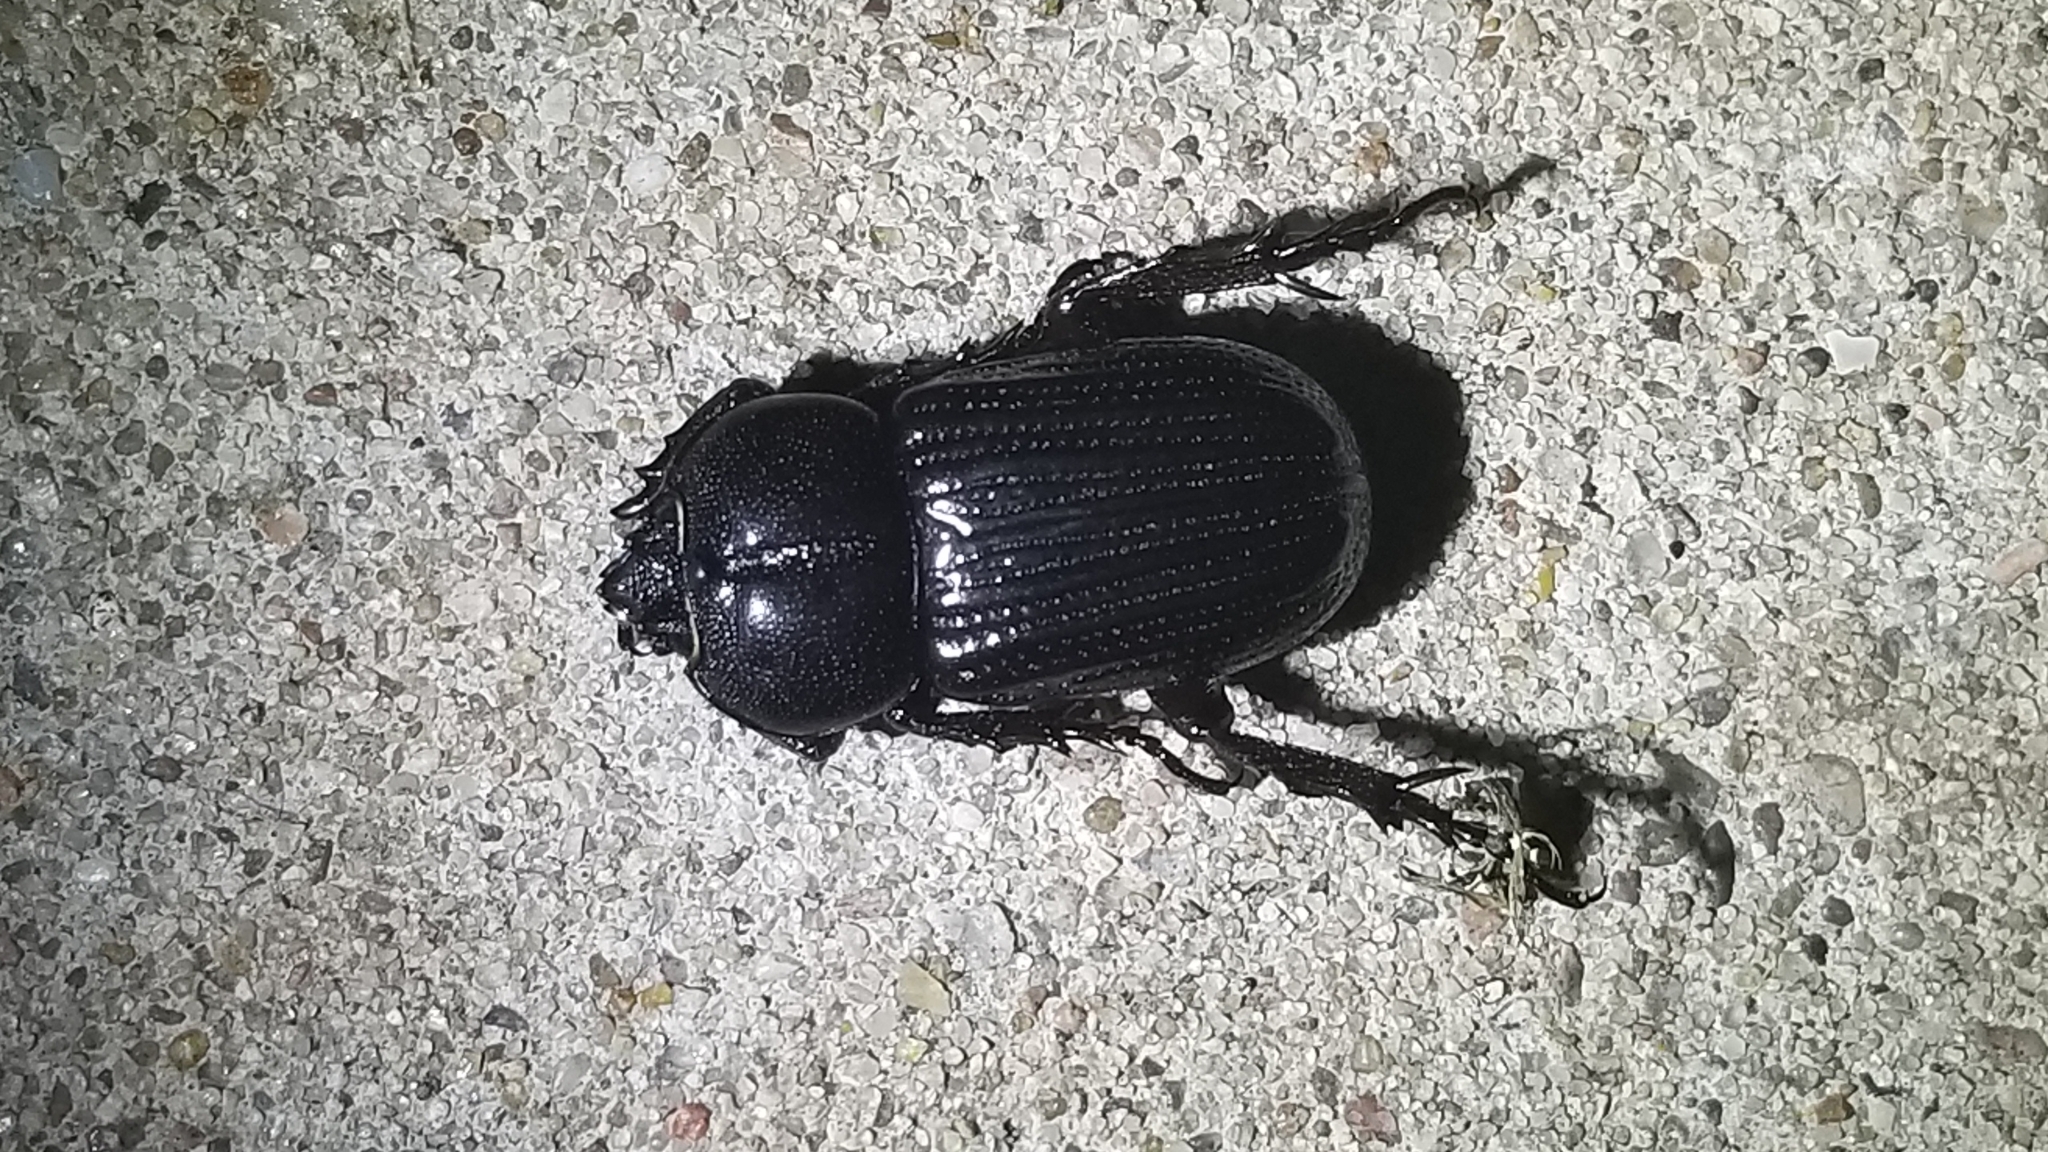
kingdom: Animalia
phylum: Arthropoda
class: Insecta
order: Coleoptera
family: Scarabaeidae
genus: Phileurus
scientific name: Phileurus valgus
